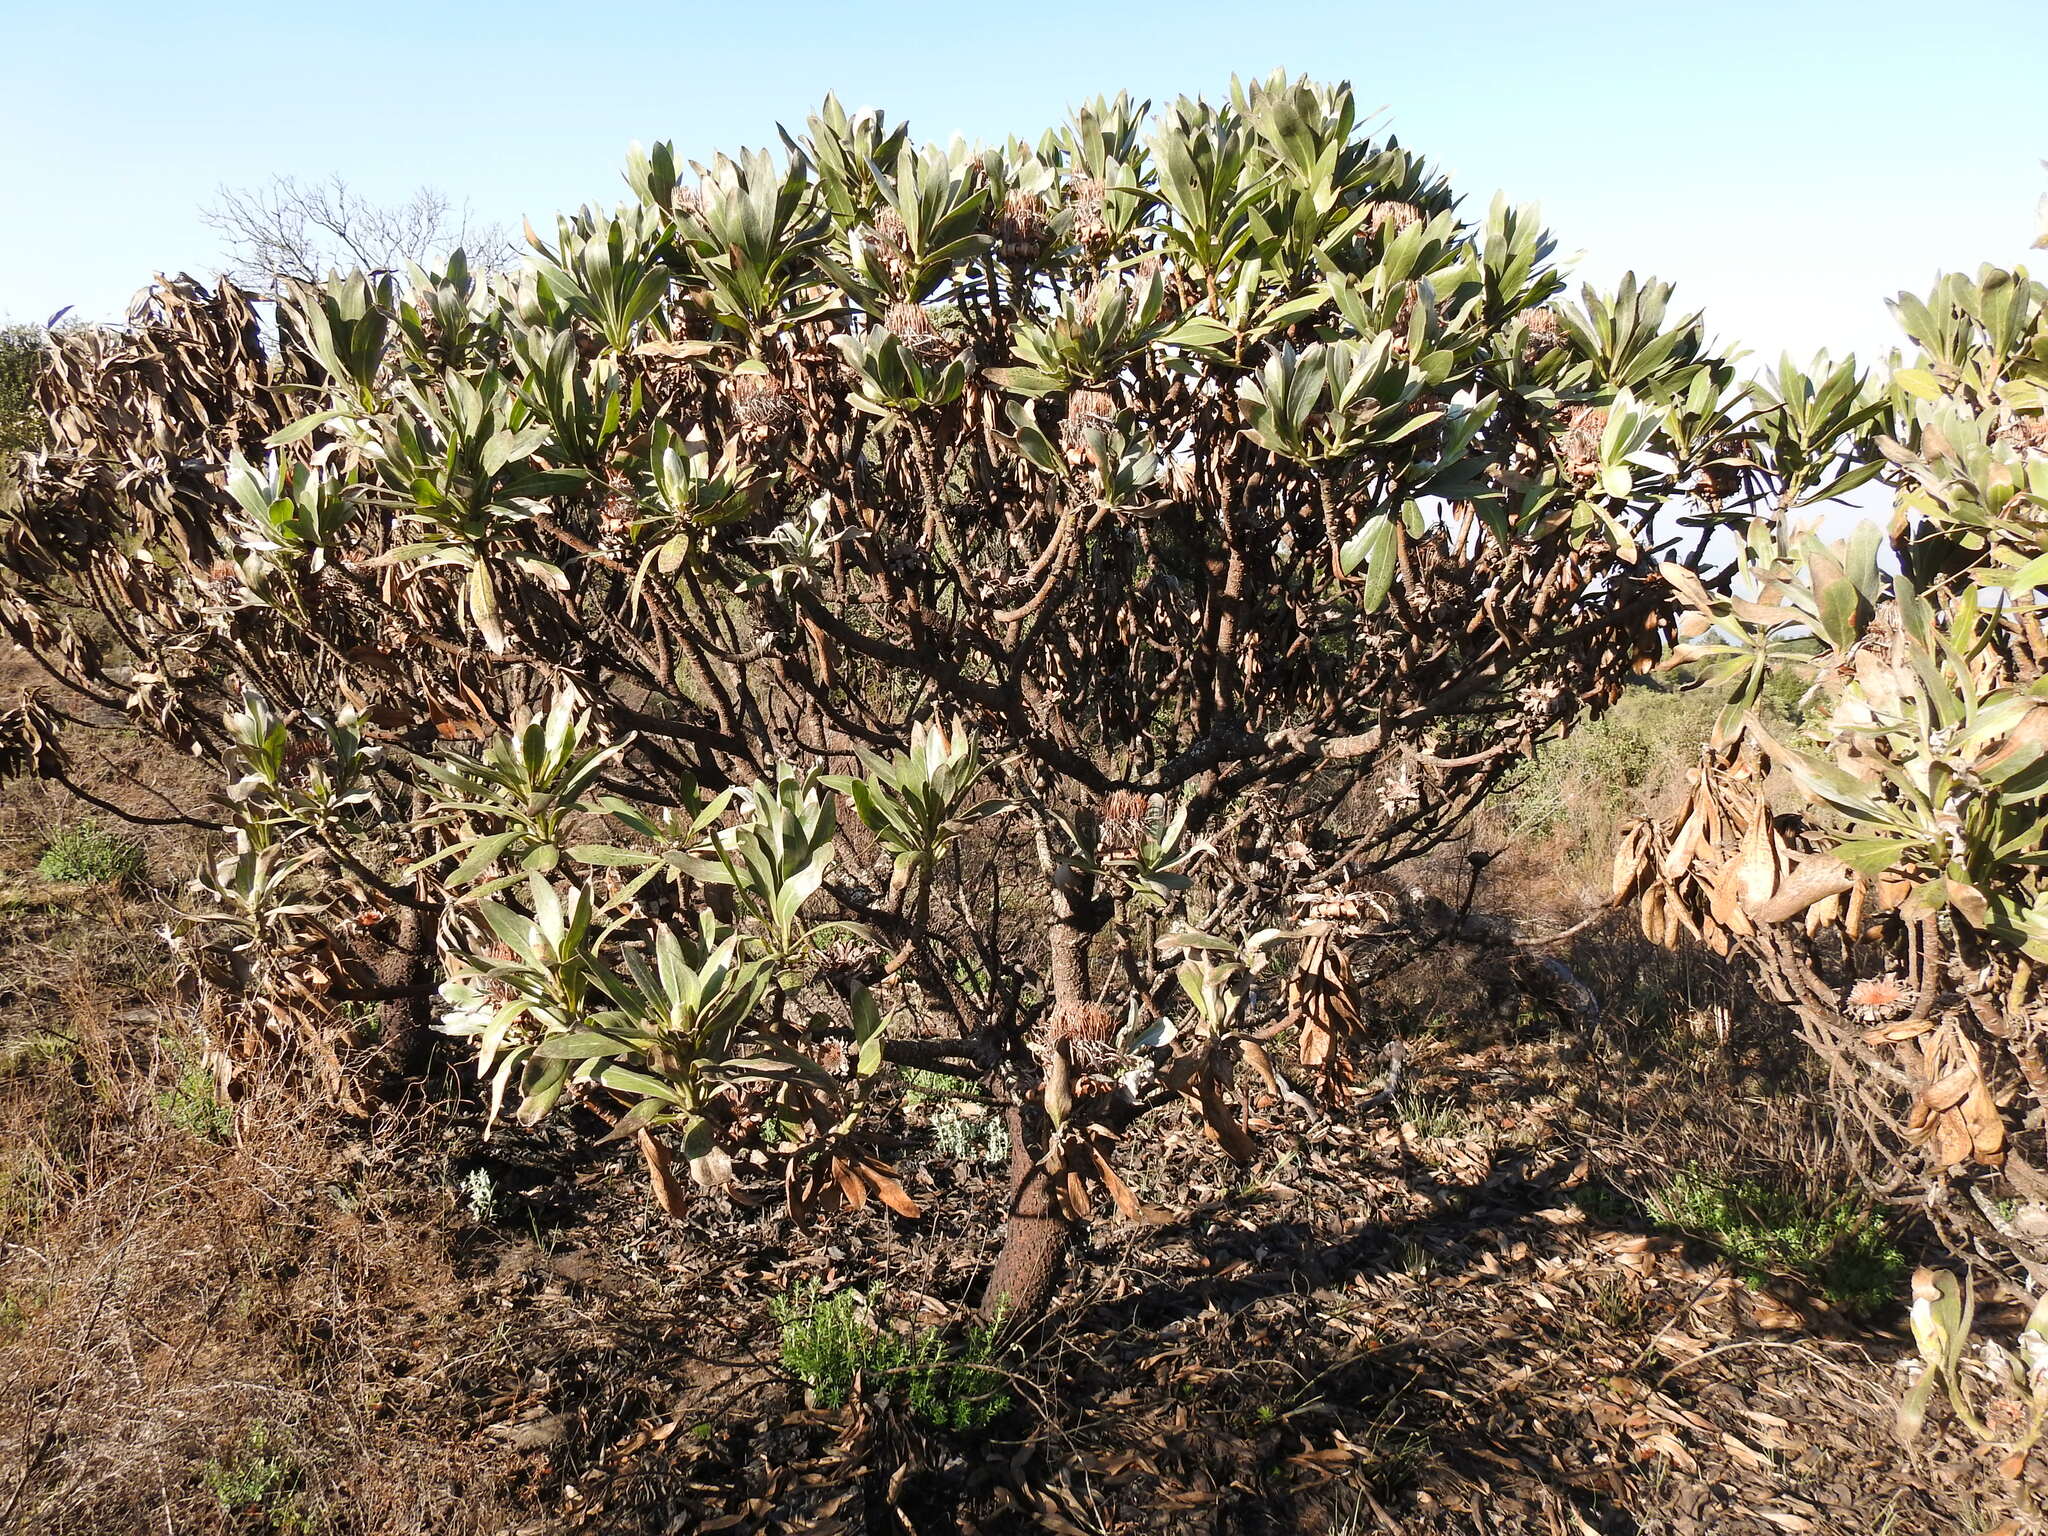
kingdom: Plantae
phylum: Tracheophyta
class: Magnoliopsida
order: Proteales
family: Proteaceae
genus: Protea
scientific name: Protea roupelliae
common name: Silver sugarbush
